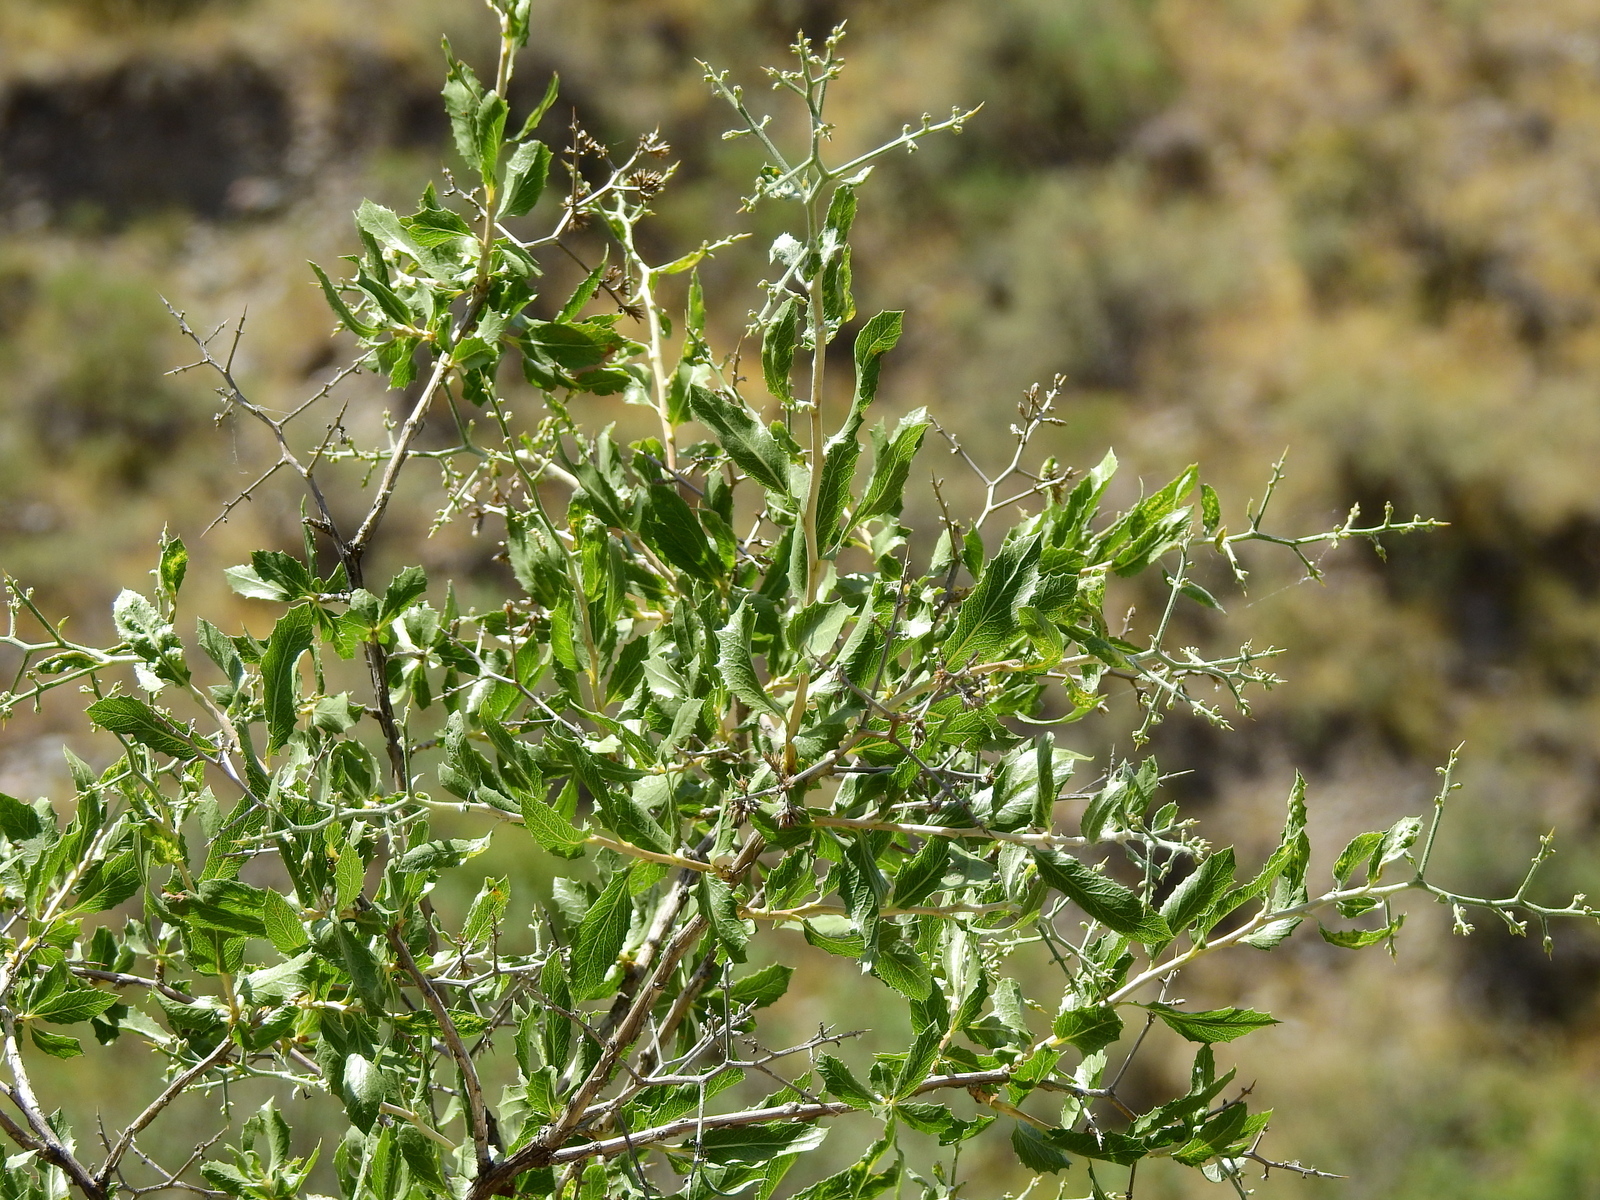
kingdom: Plantae
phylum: Tracheophyta
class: Magnoliopsida
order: Asterales
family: Asteraceae
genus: Proustia
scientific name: Proustia cuneifolia
